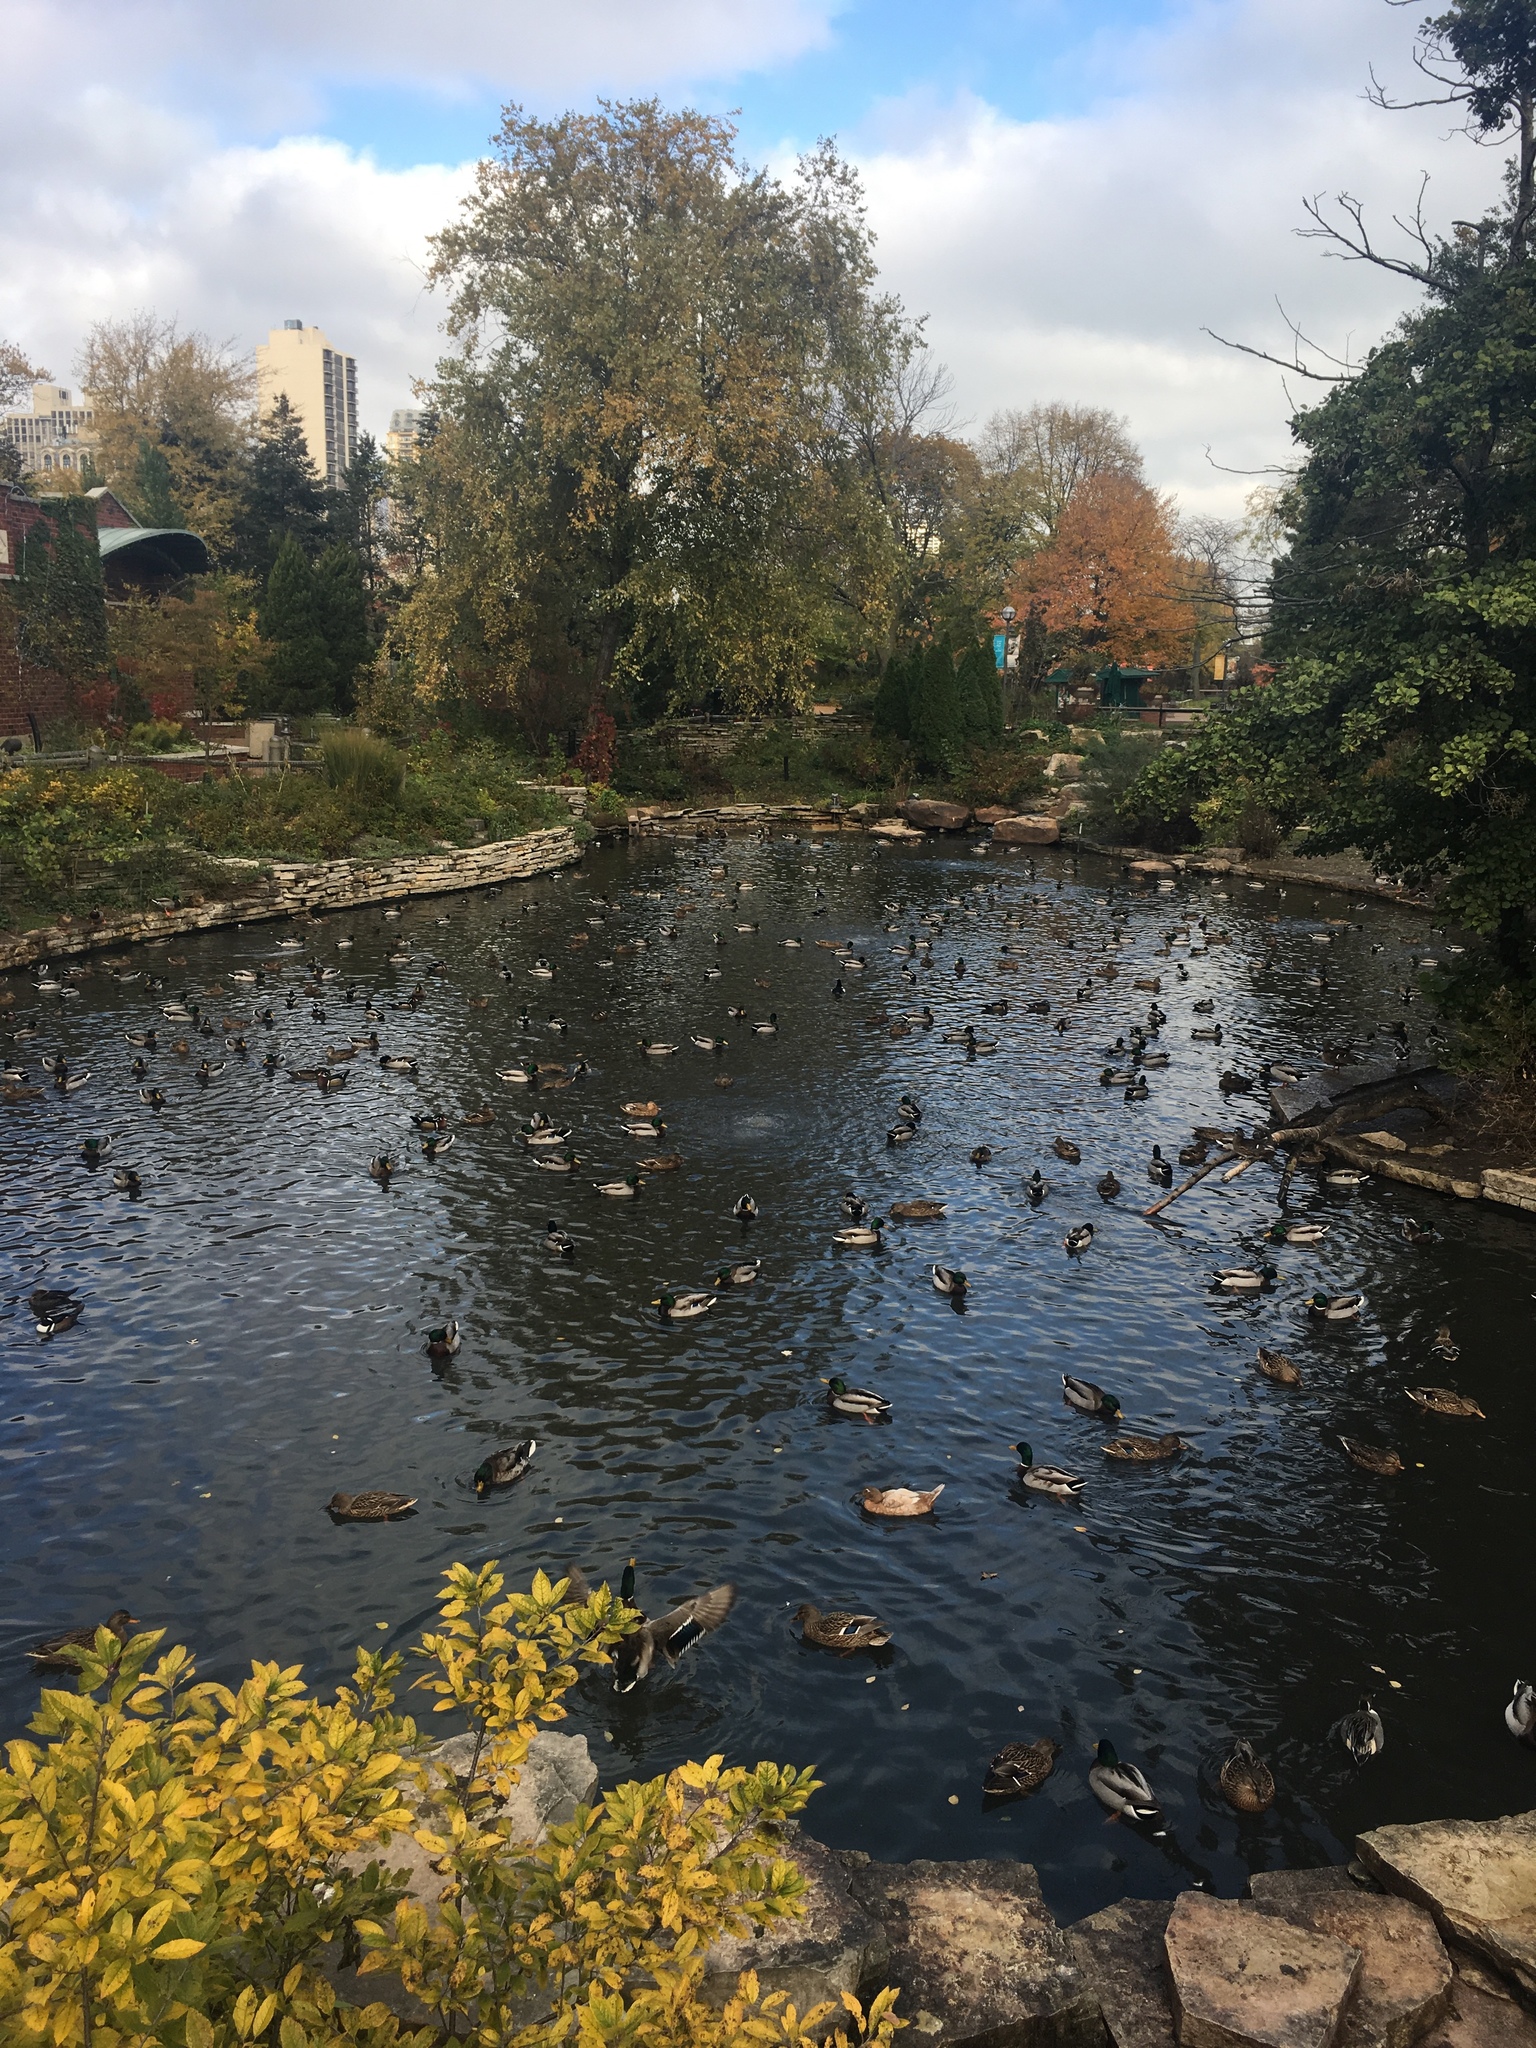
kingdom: Animalia
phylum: Chordata
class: Aves
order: Anseriformes
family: Anatidae
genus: Anas
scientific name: Anas platyrhynchos
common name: Mallard
